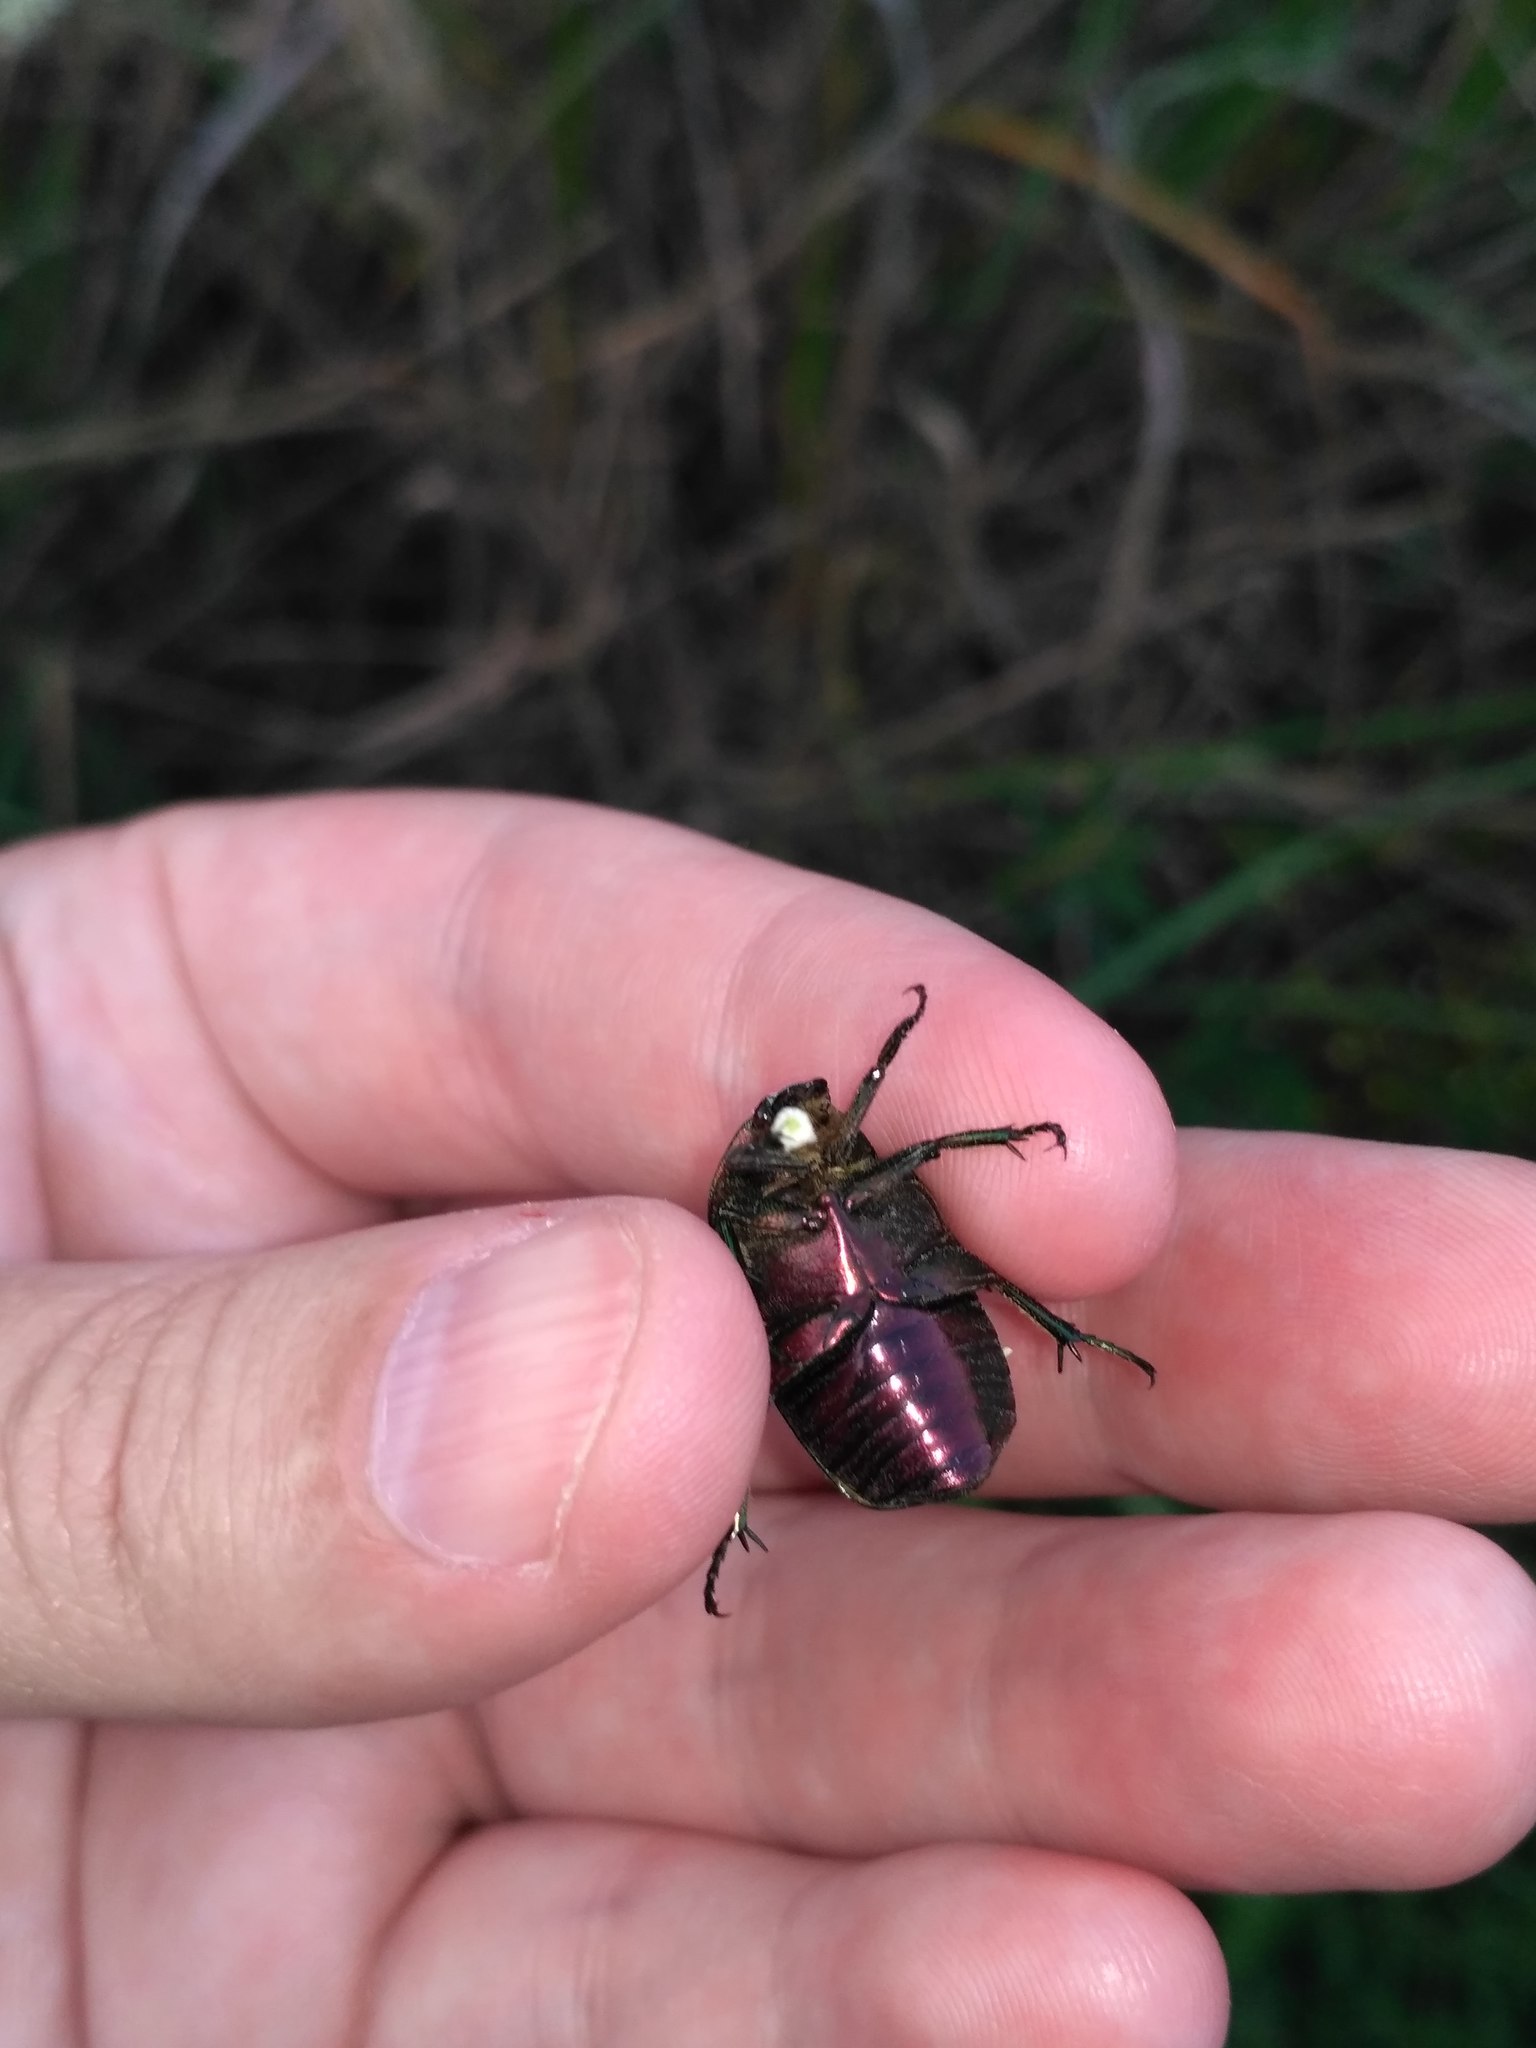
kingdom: Animalia
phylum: Arthropoda
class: Insecta
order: Coleoptera
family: Scarabaeidae
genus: Cetonia
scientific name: Cetonia aurata
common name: Rose chafer
